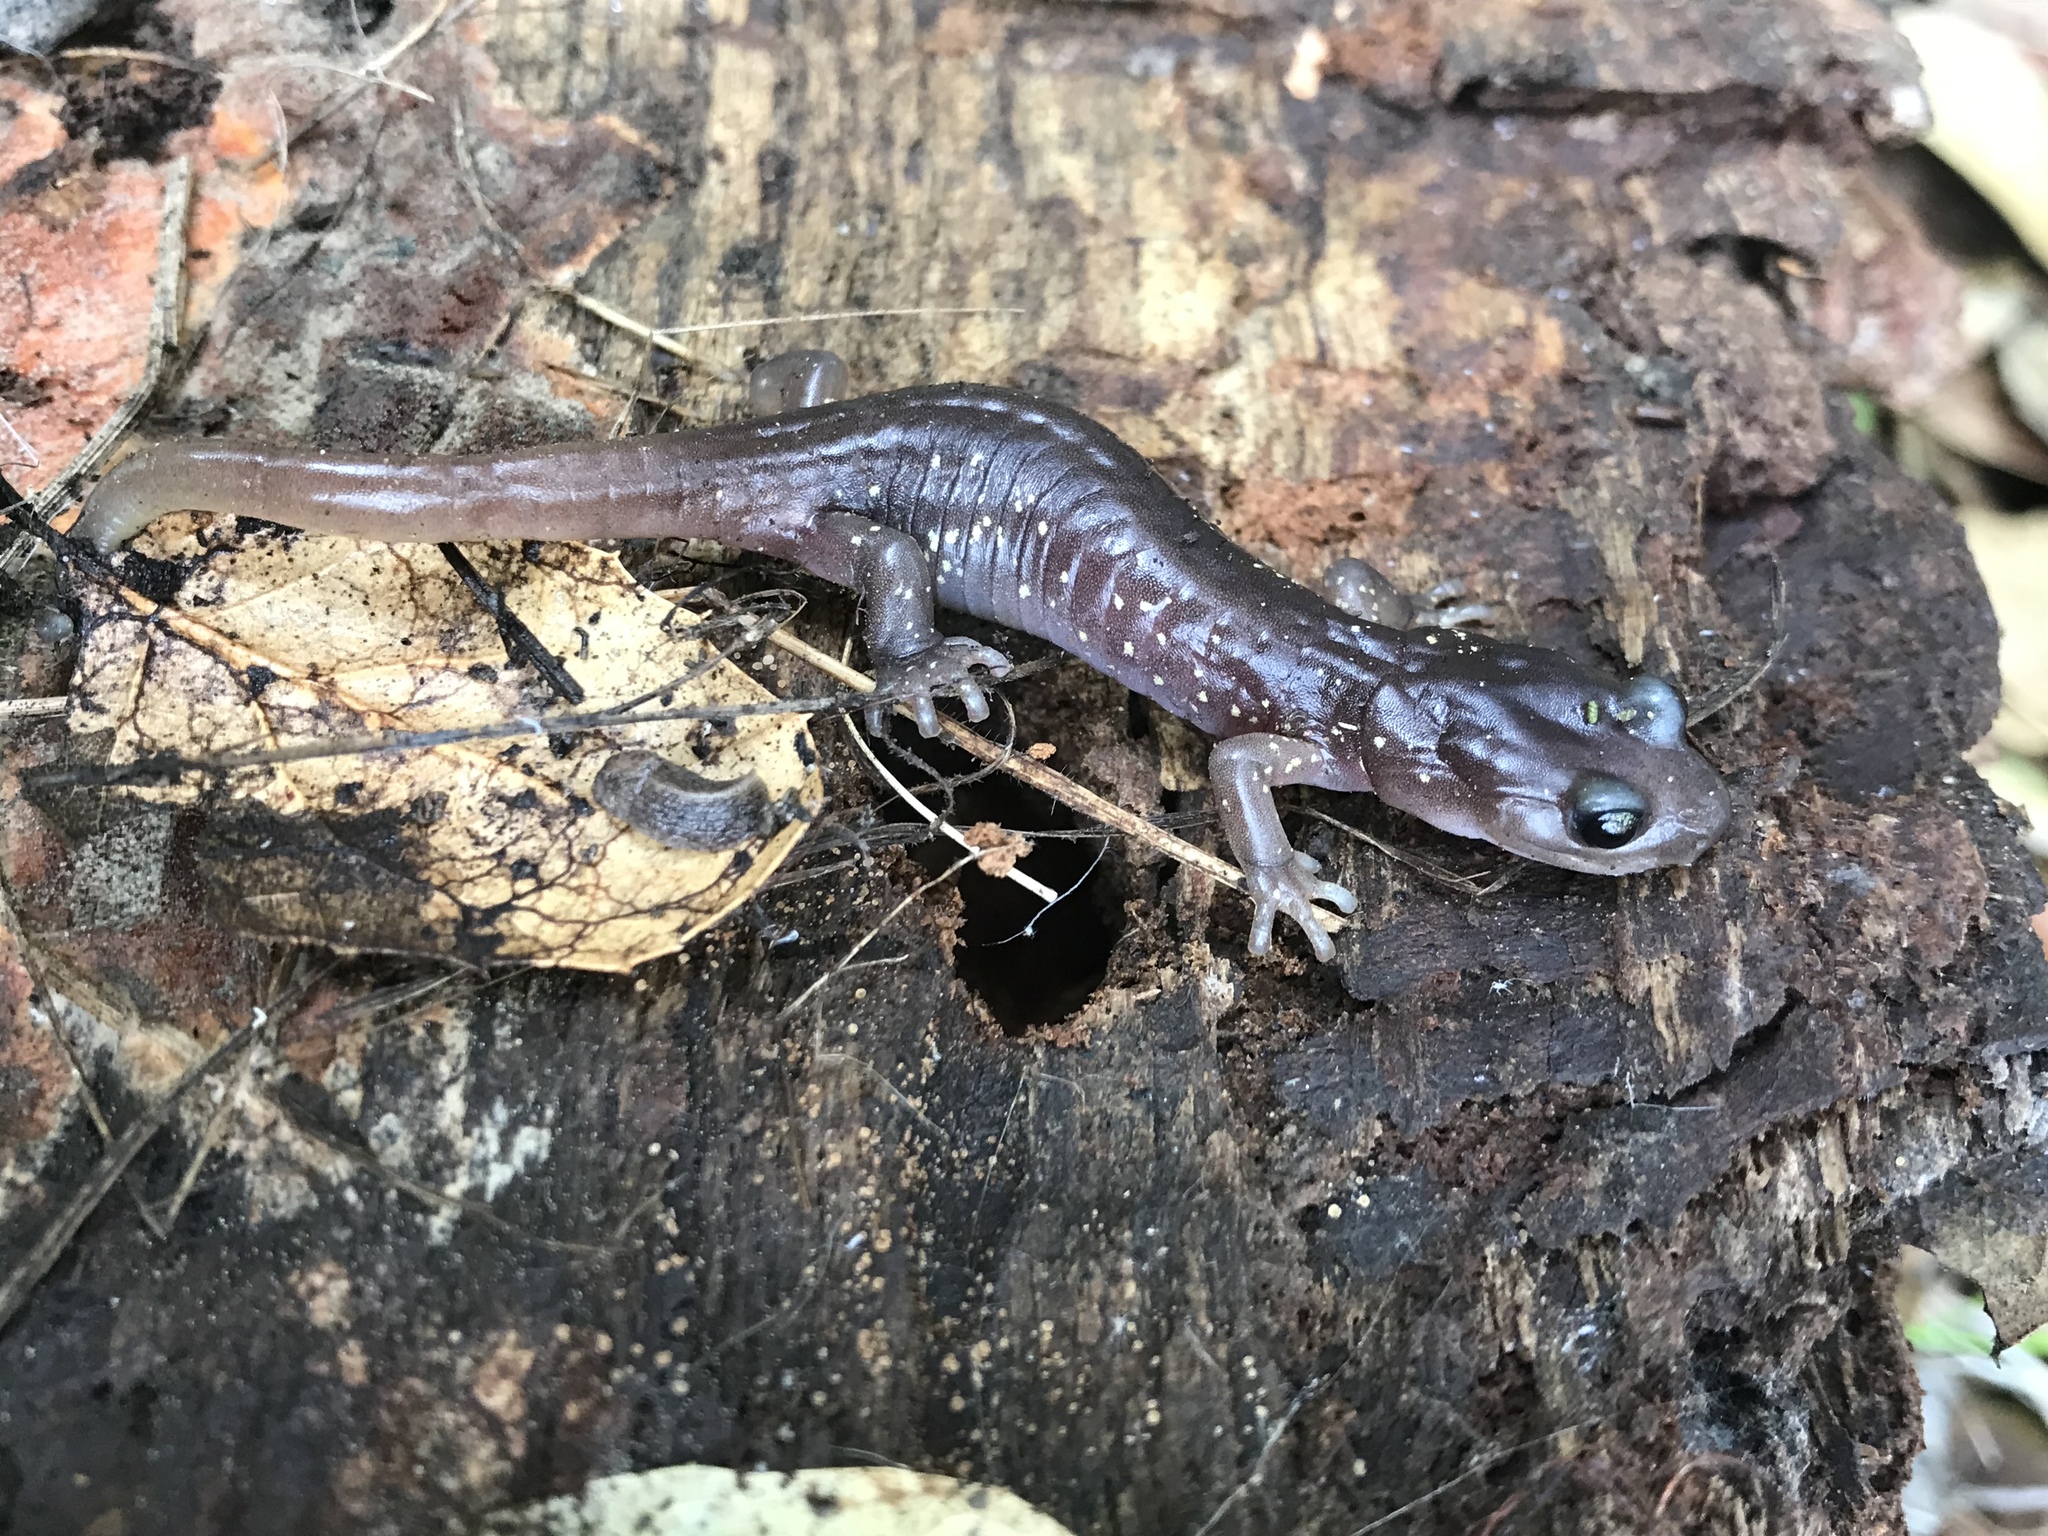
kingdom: Animalia
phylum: Chordata
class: Amphibia
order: Caudata
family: Plethodontidae
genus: Aneides
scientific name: Aneides lugubris
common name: Arboreal salamander
